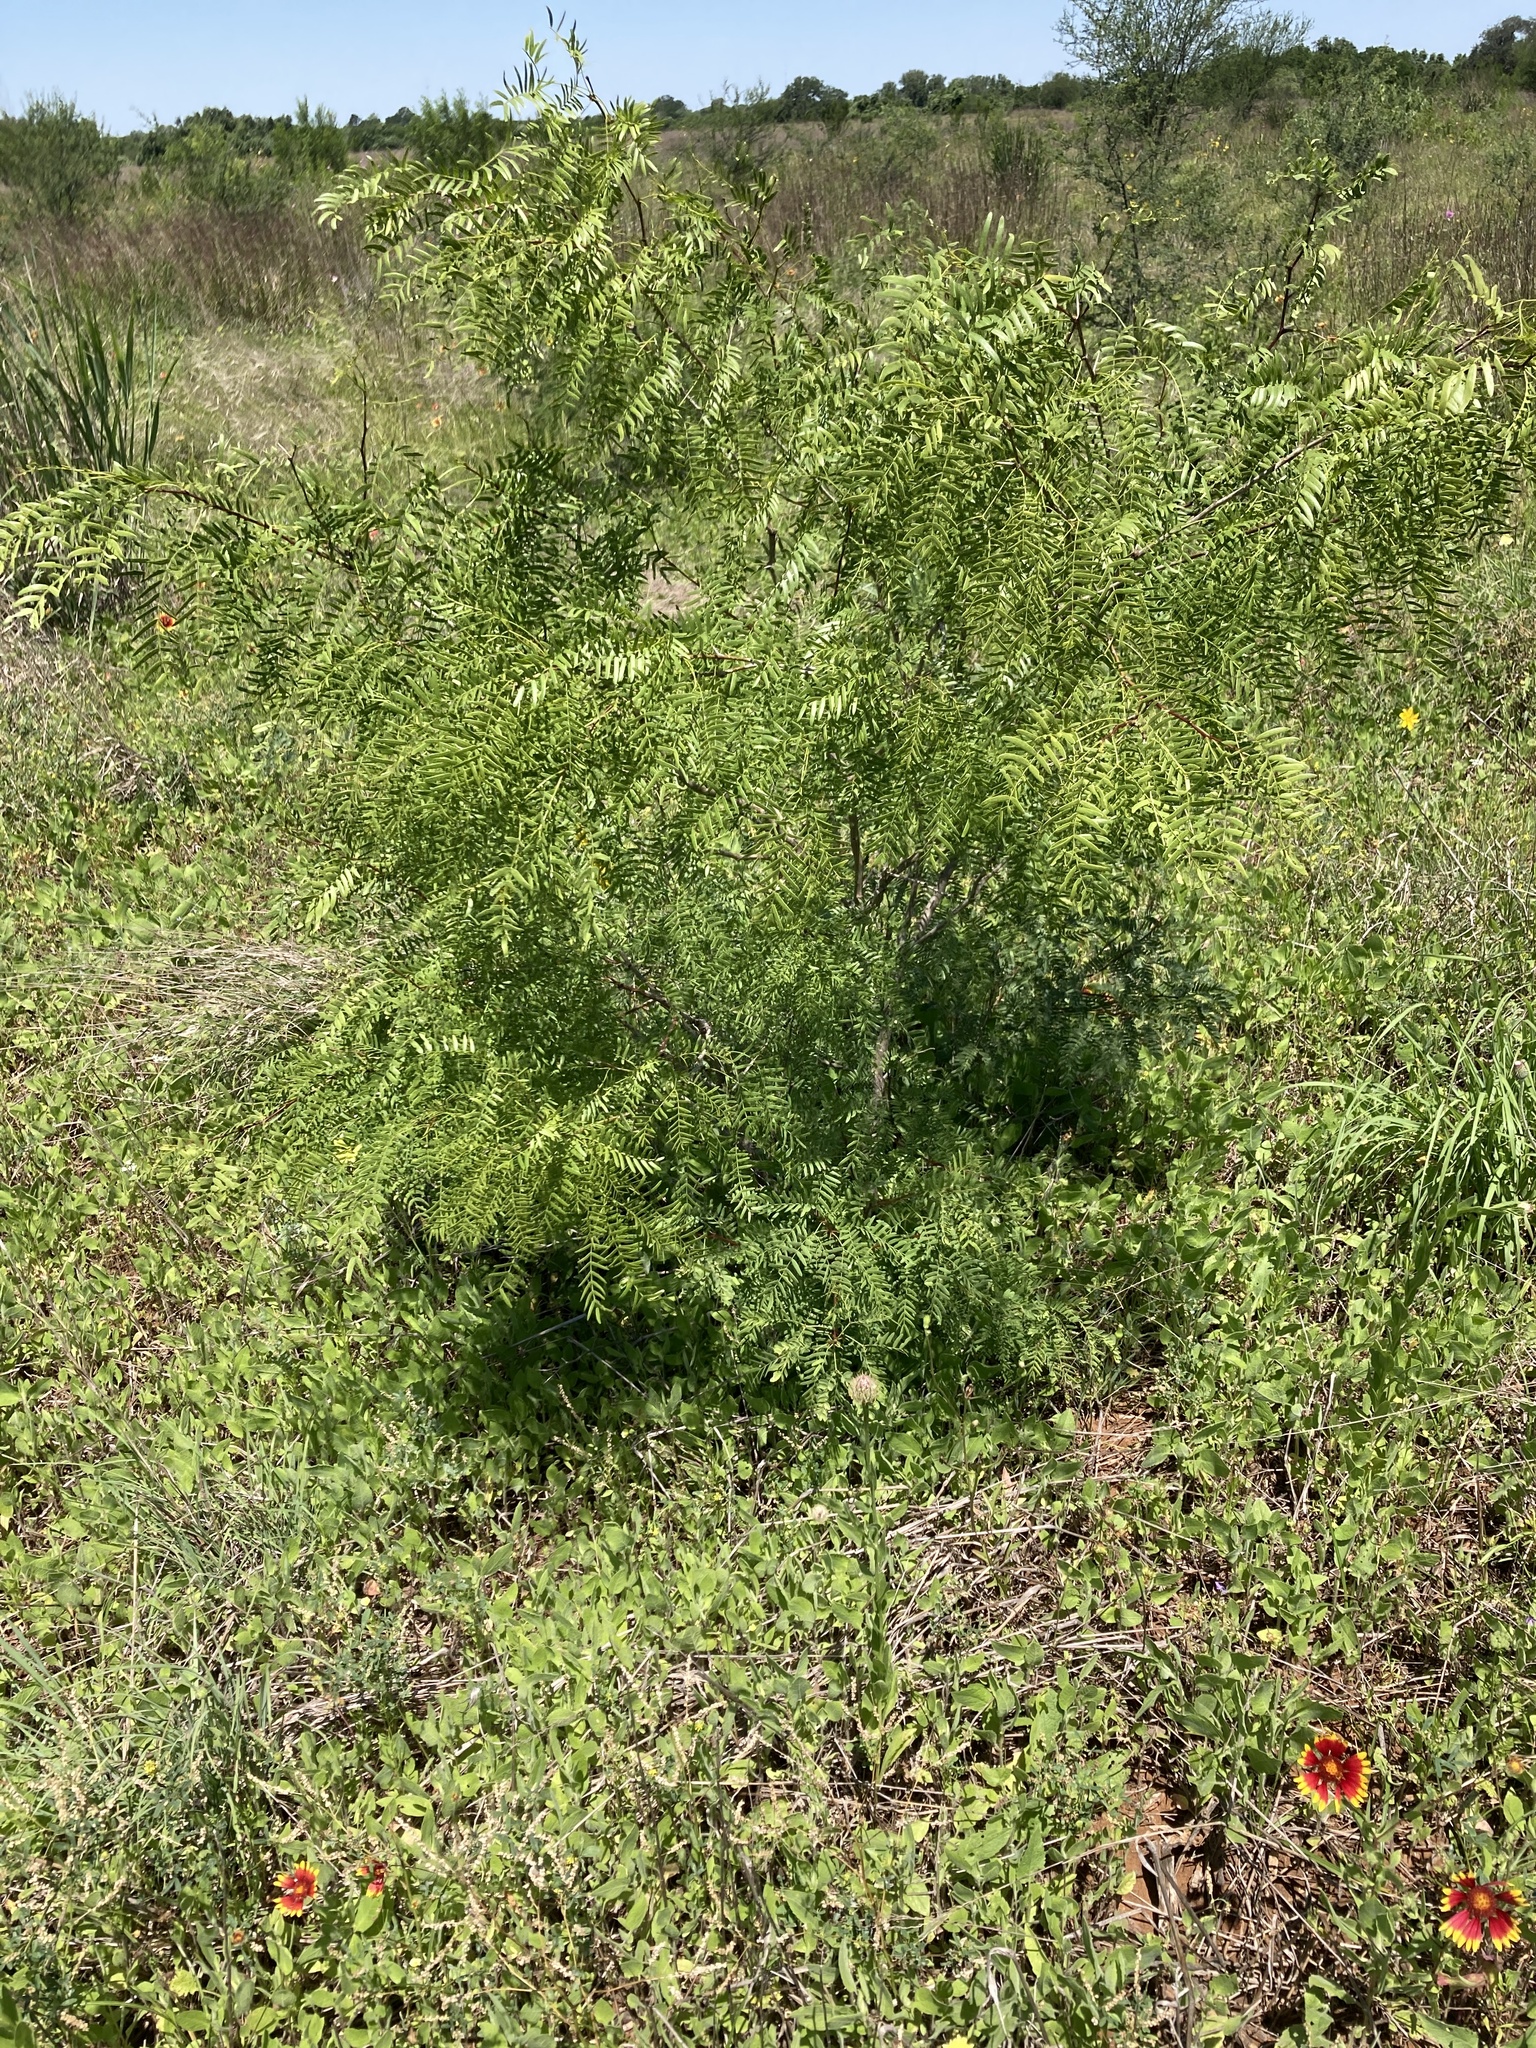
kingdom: Plantae
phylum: Tracheophyta
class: Magnoliopsida
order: Fabales
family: Fabaceae
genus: Prosopis
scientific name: Prosopis glandulosa
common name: Honey mesquite
